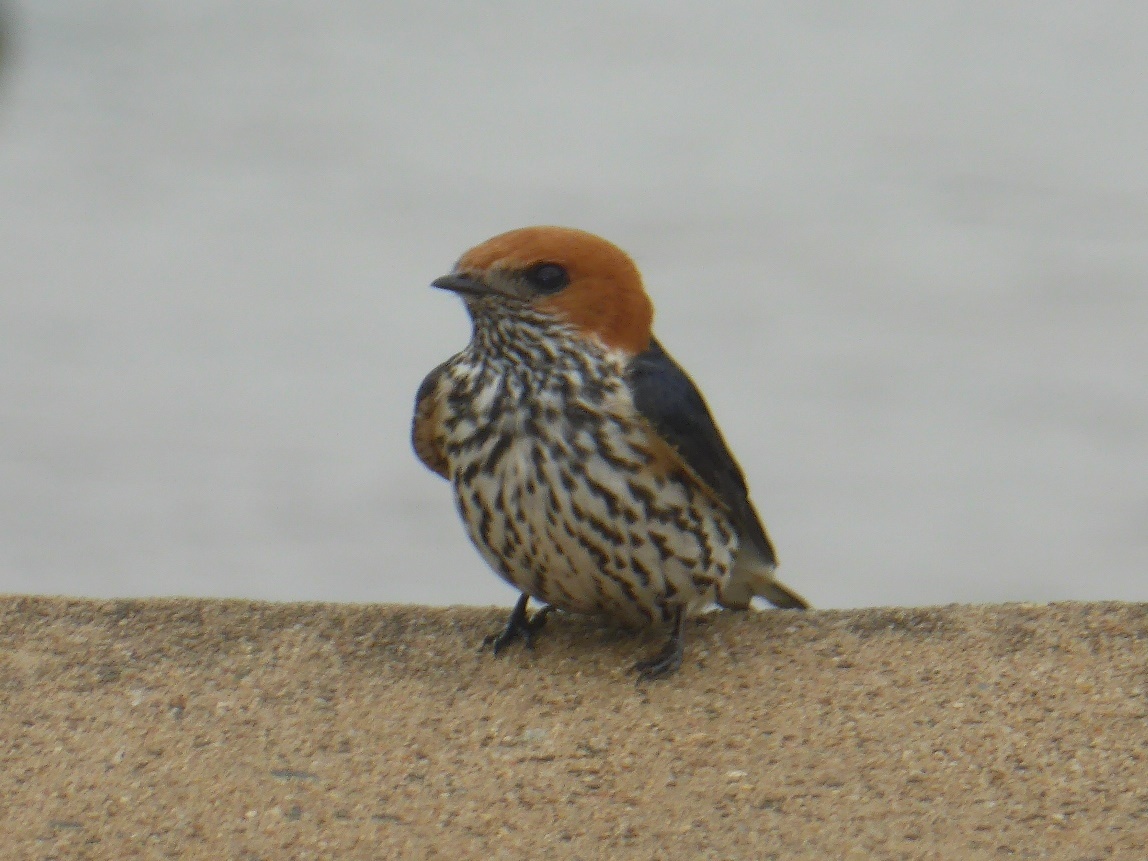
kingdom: Animalia
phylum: Chordata
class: Aves
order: Passeriformes
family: Hirundinidae
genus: Cecropis
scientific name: Cecropis abyssinica
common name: Lesser striped-swallow
